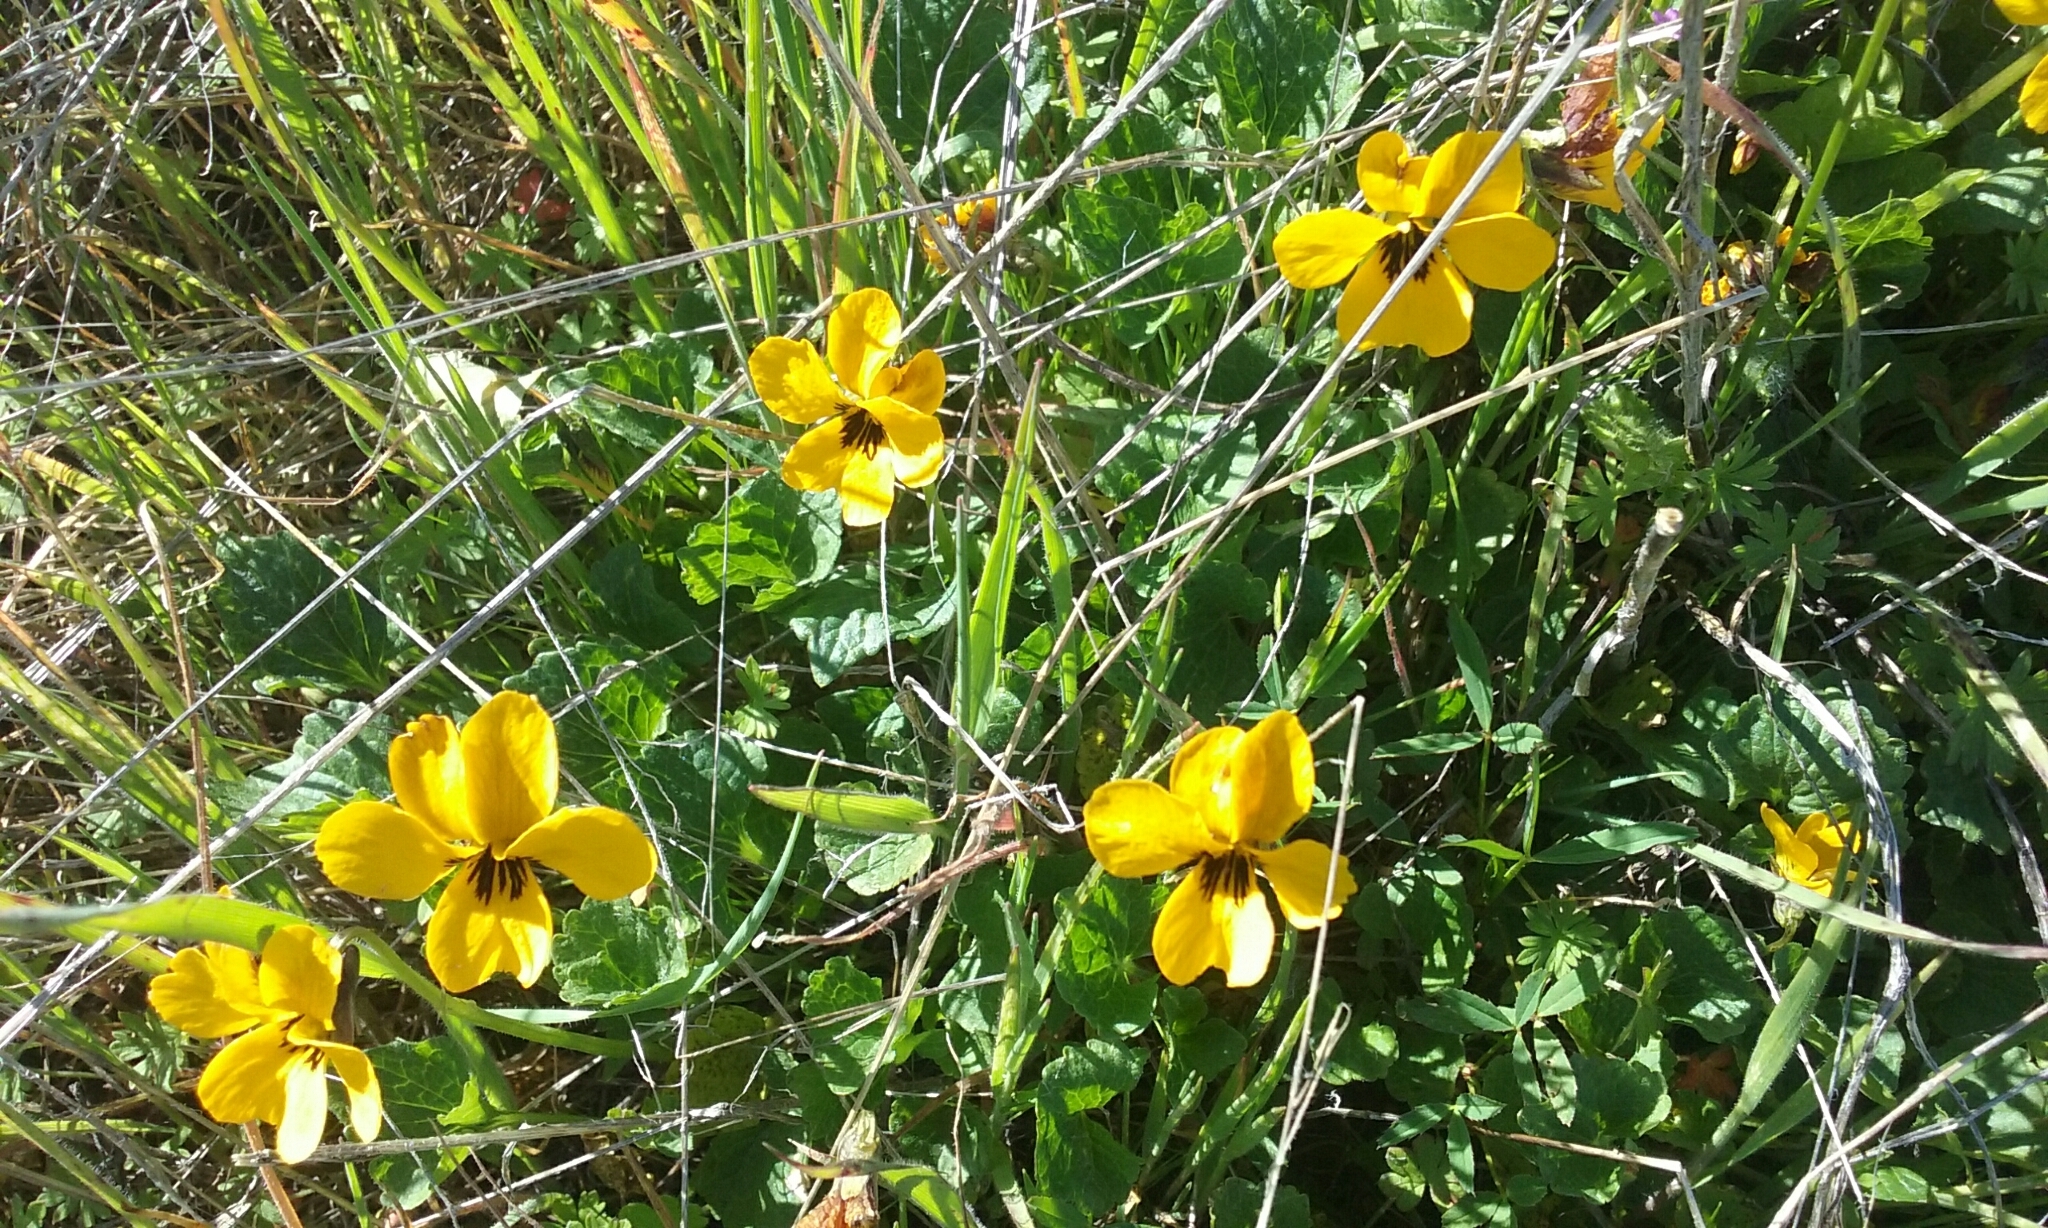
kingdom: Plantae
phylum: Tracheophyta
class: Magnoliopsida
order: Malpighiales
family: Violaceae
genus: Viola
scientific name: Viola pedunculata
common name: California golden violet
